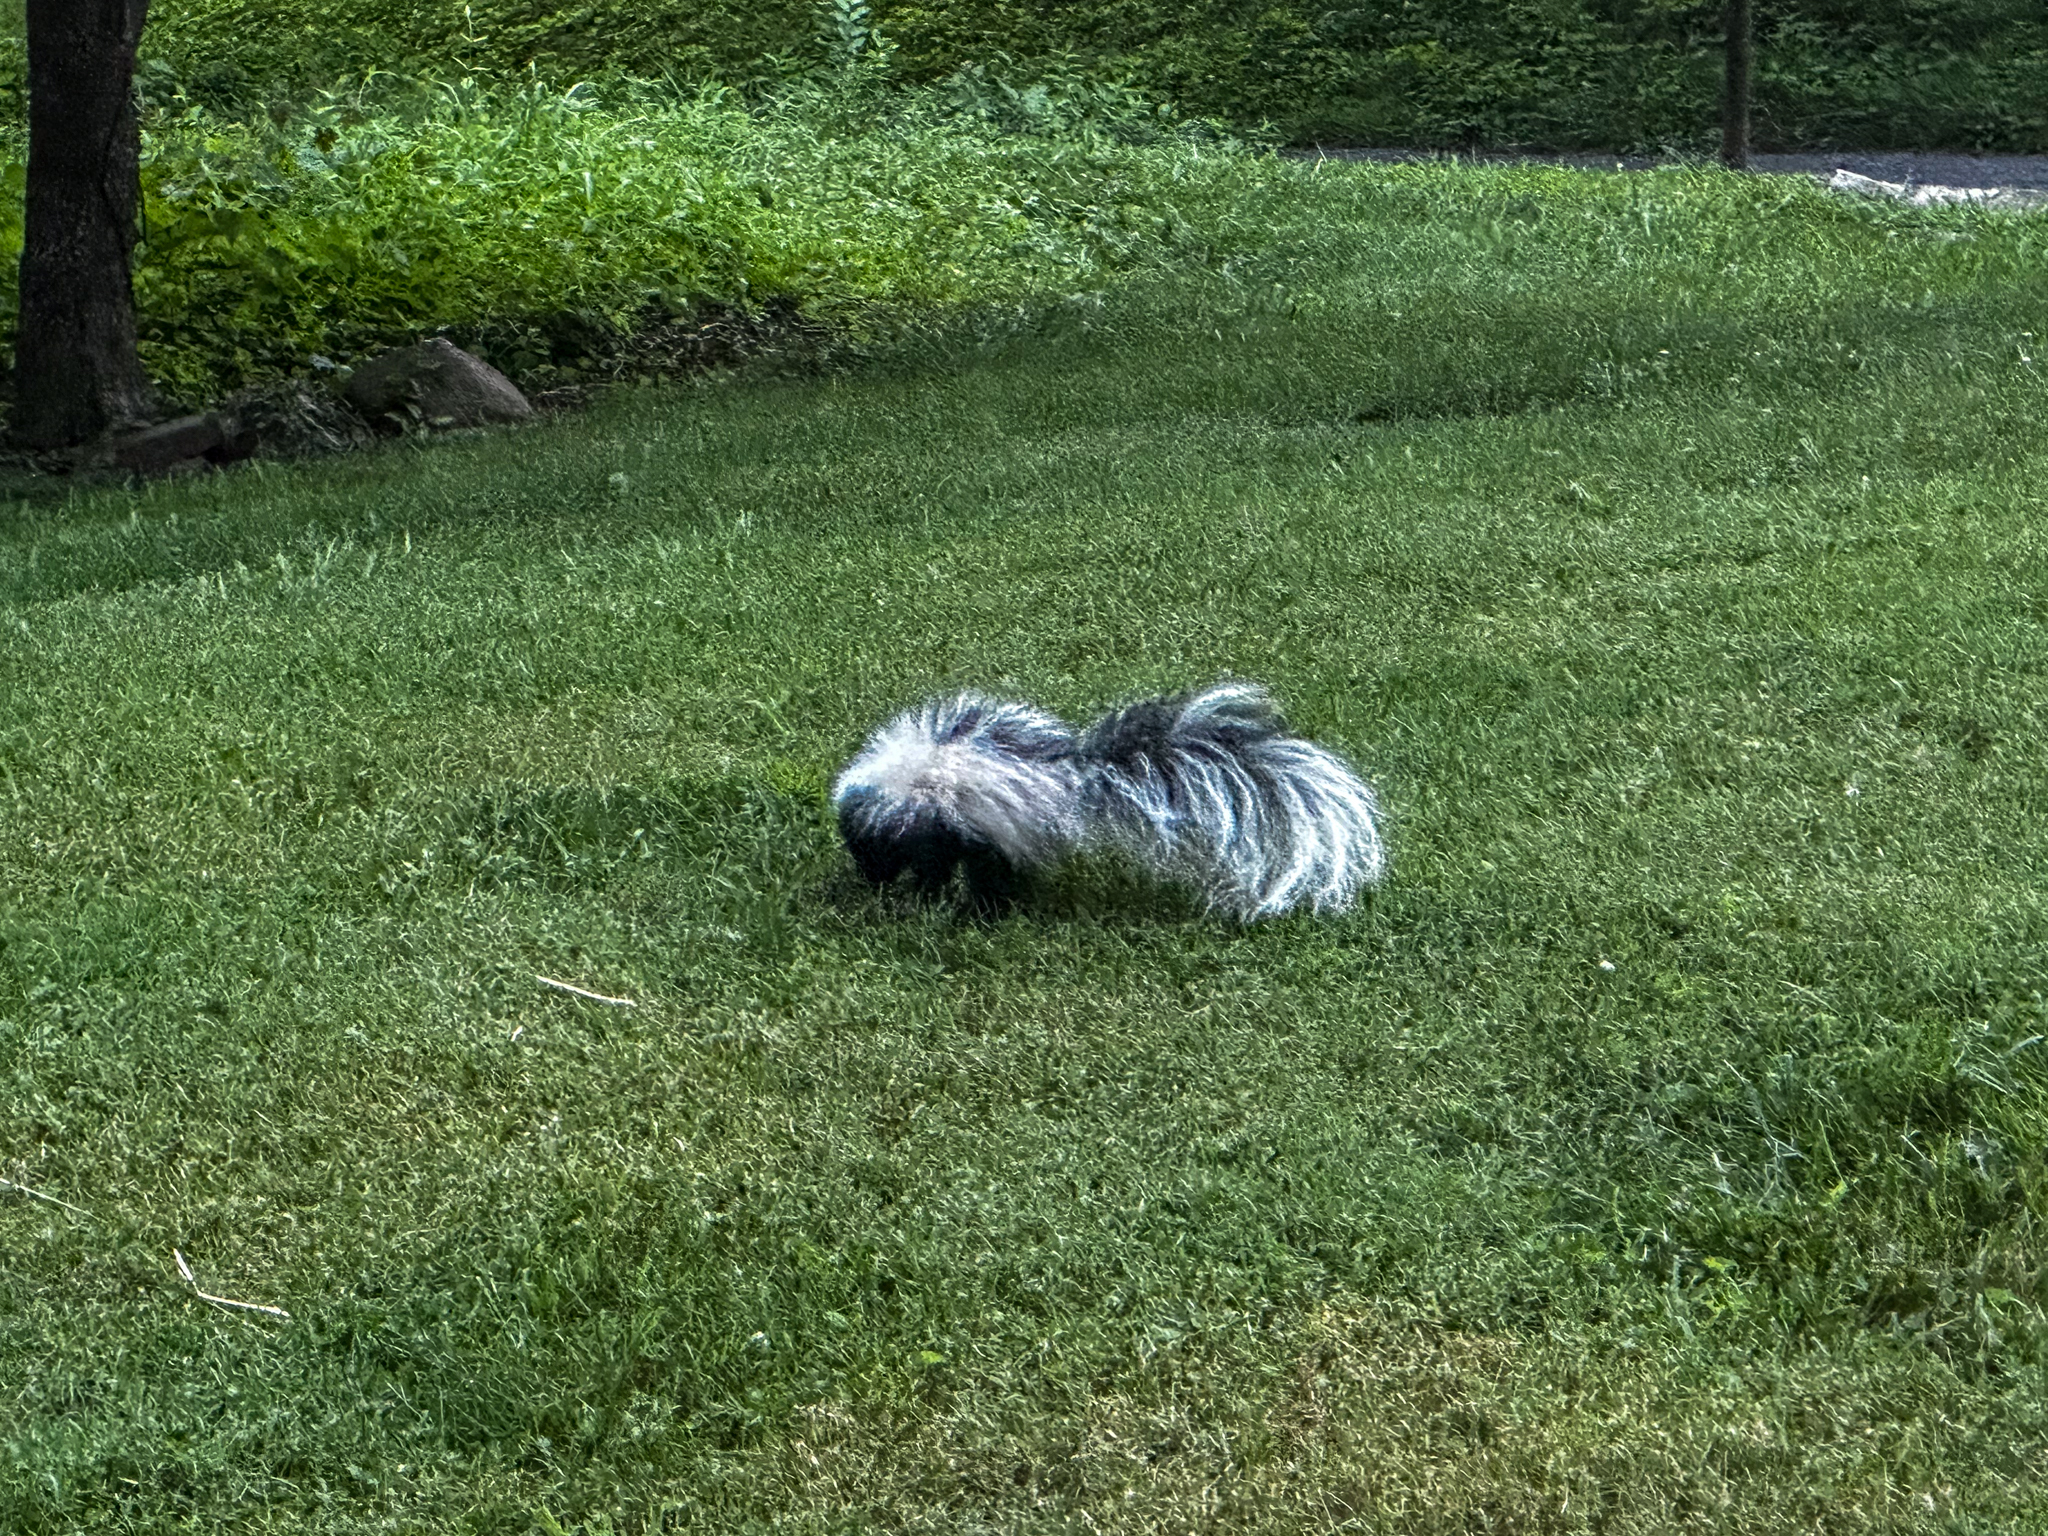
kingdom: Animalia
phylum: Chordata
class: Mammalia
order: Carnivora
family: Mephitidae
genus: Mephitis
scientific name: Mephitis mephitis
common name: Striped skunk
